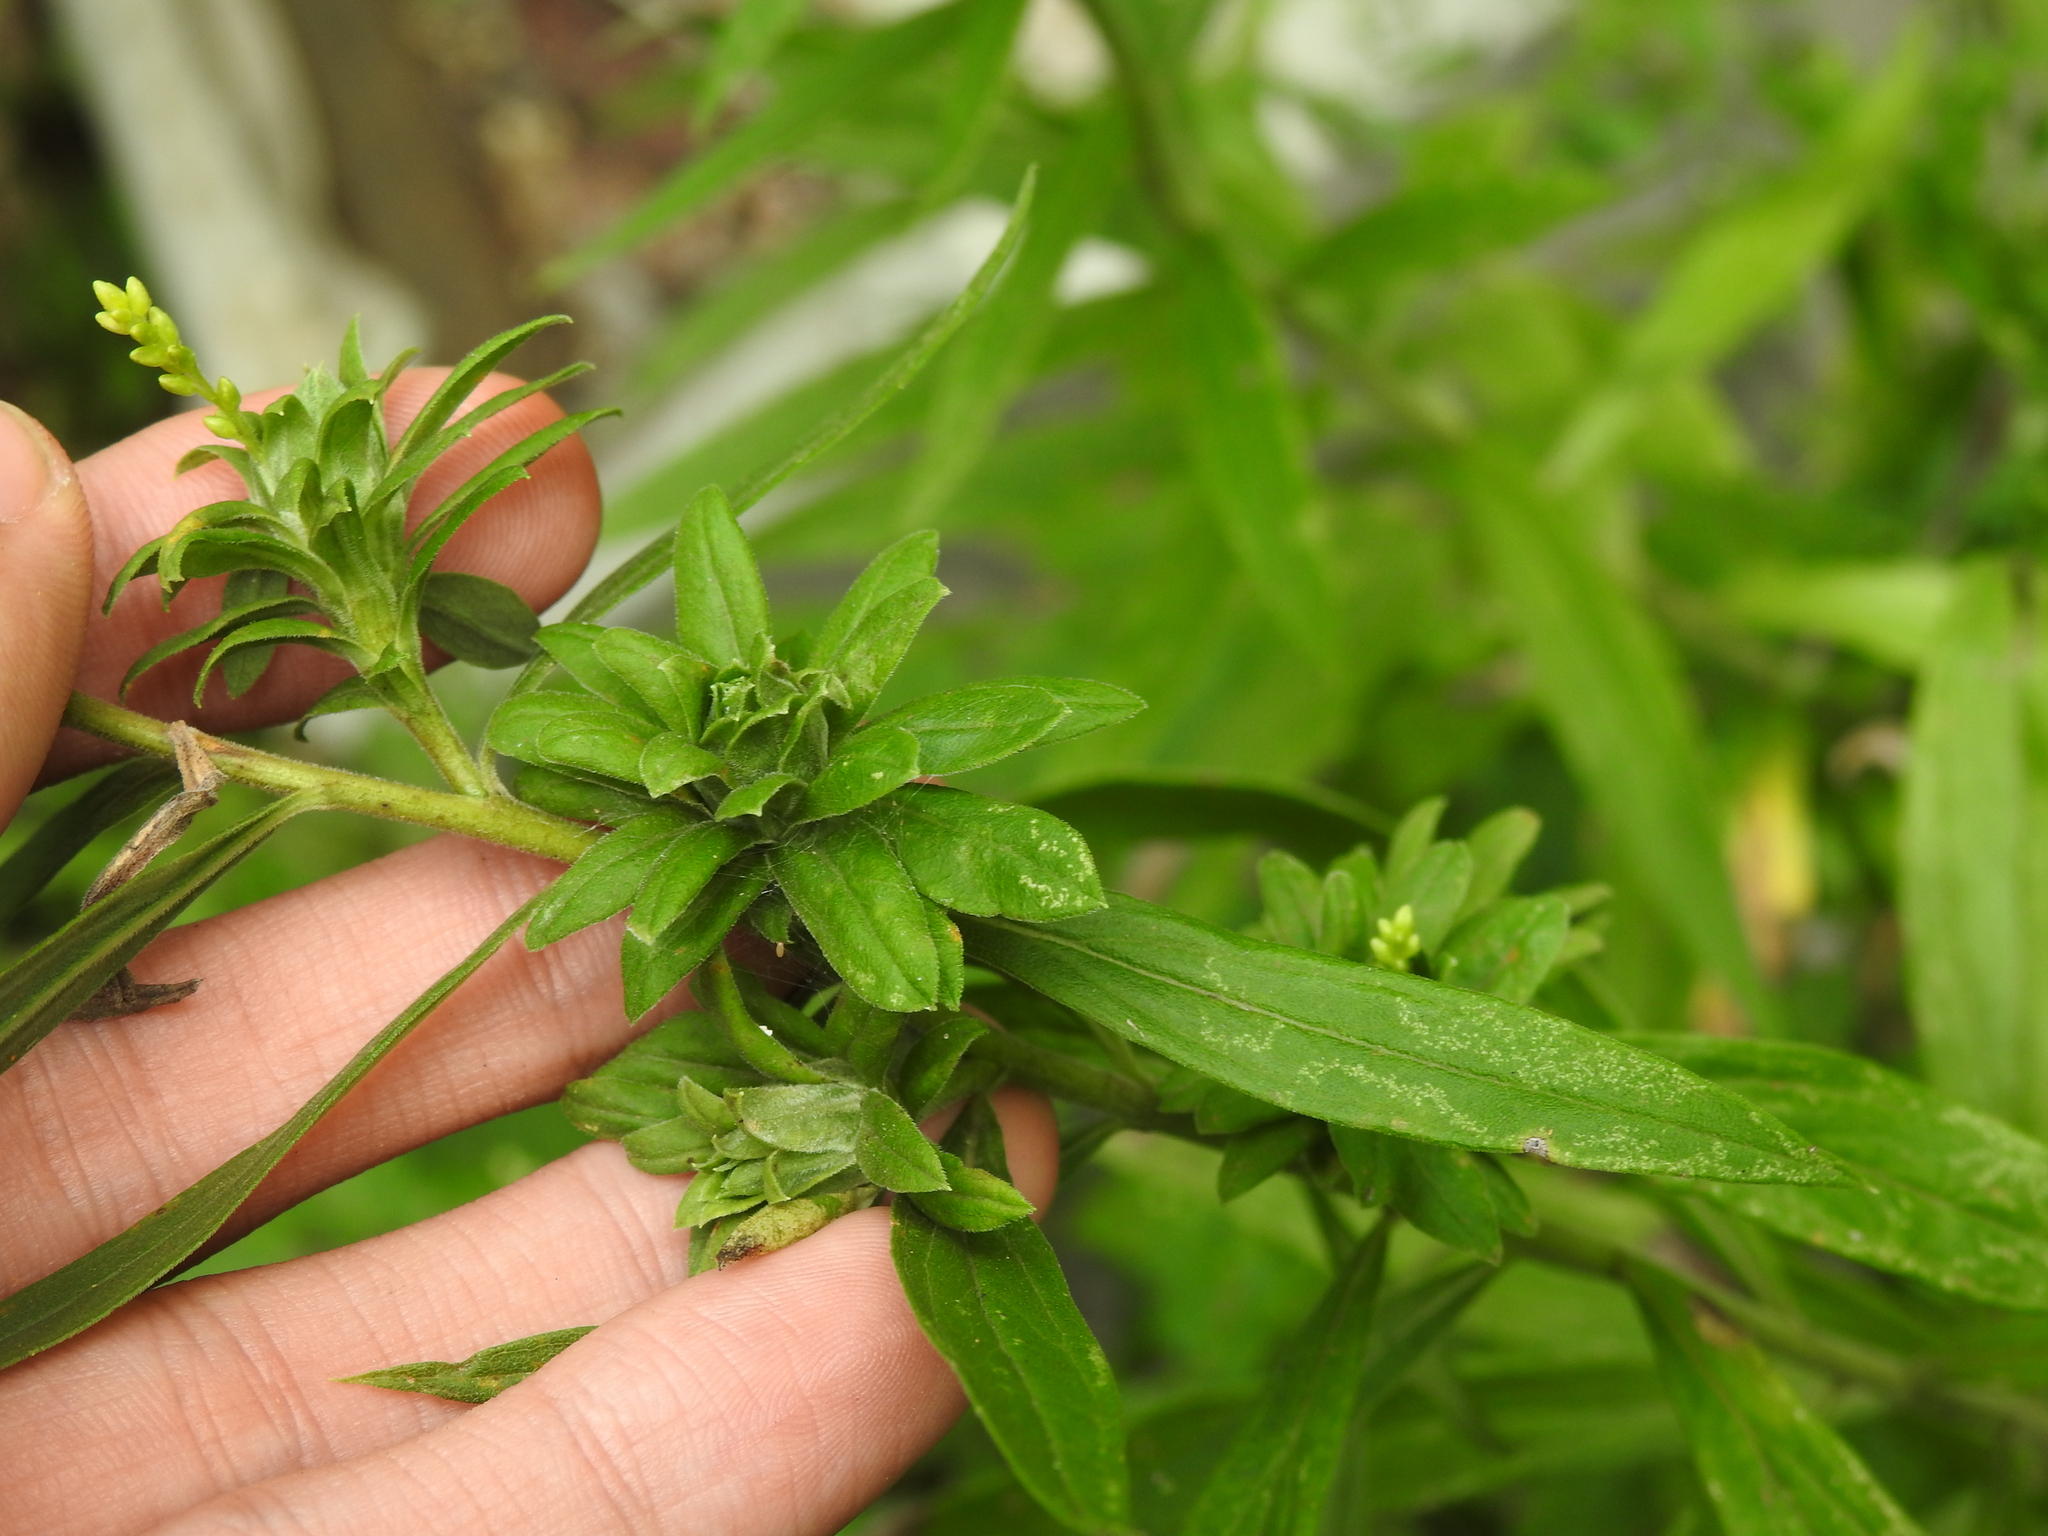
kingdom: Animalia
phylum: Arthropoda
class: Insecta
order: Diptera
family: Tephritidae
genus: Procecidochares
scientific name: Procecidochares atra
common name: Goldenrod brussels sprout gall fly
